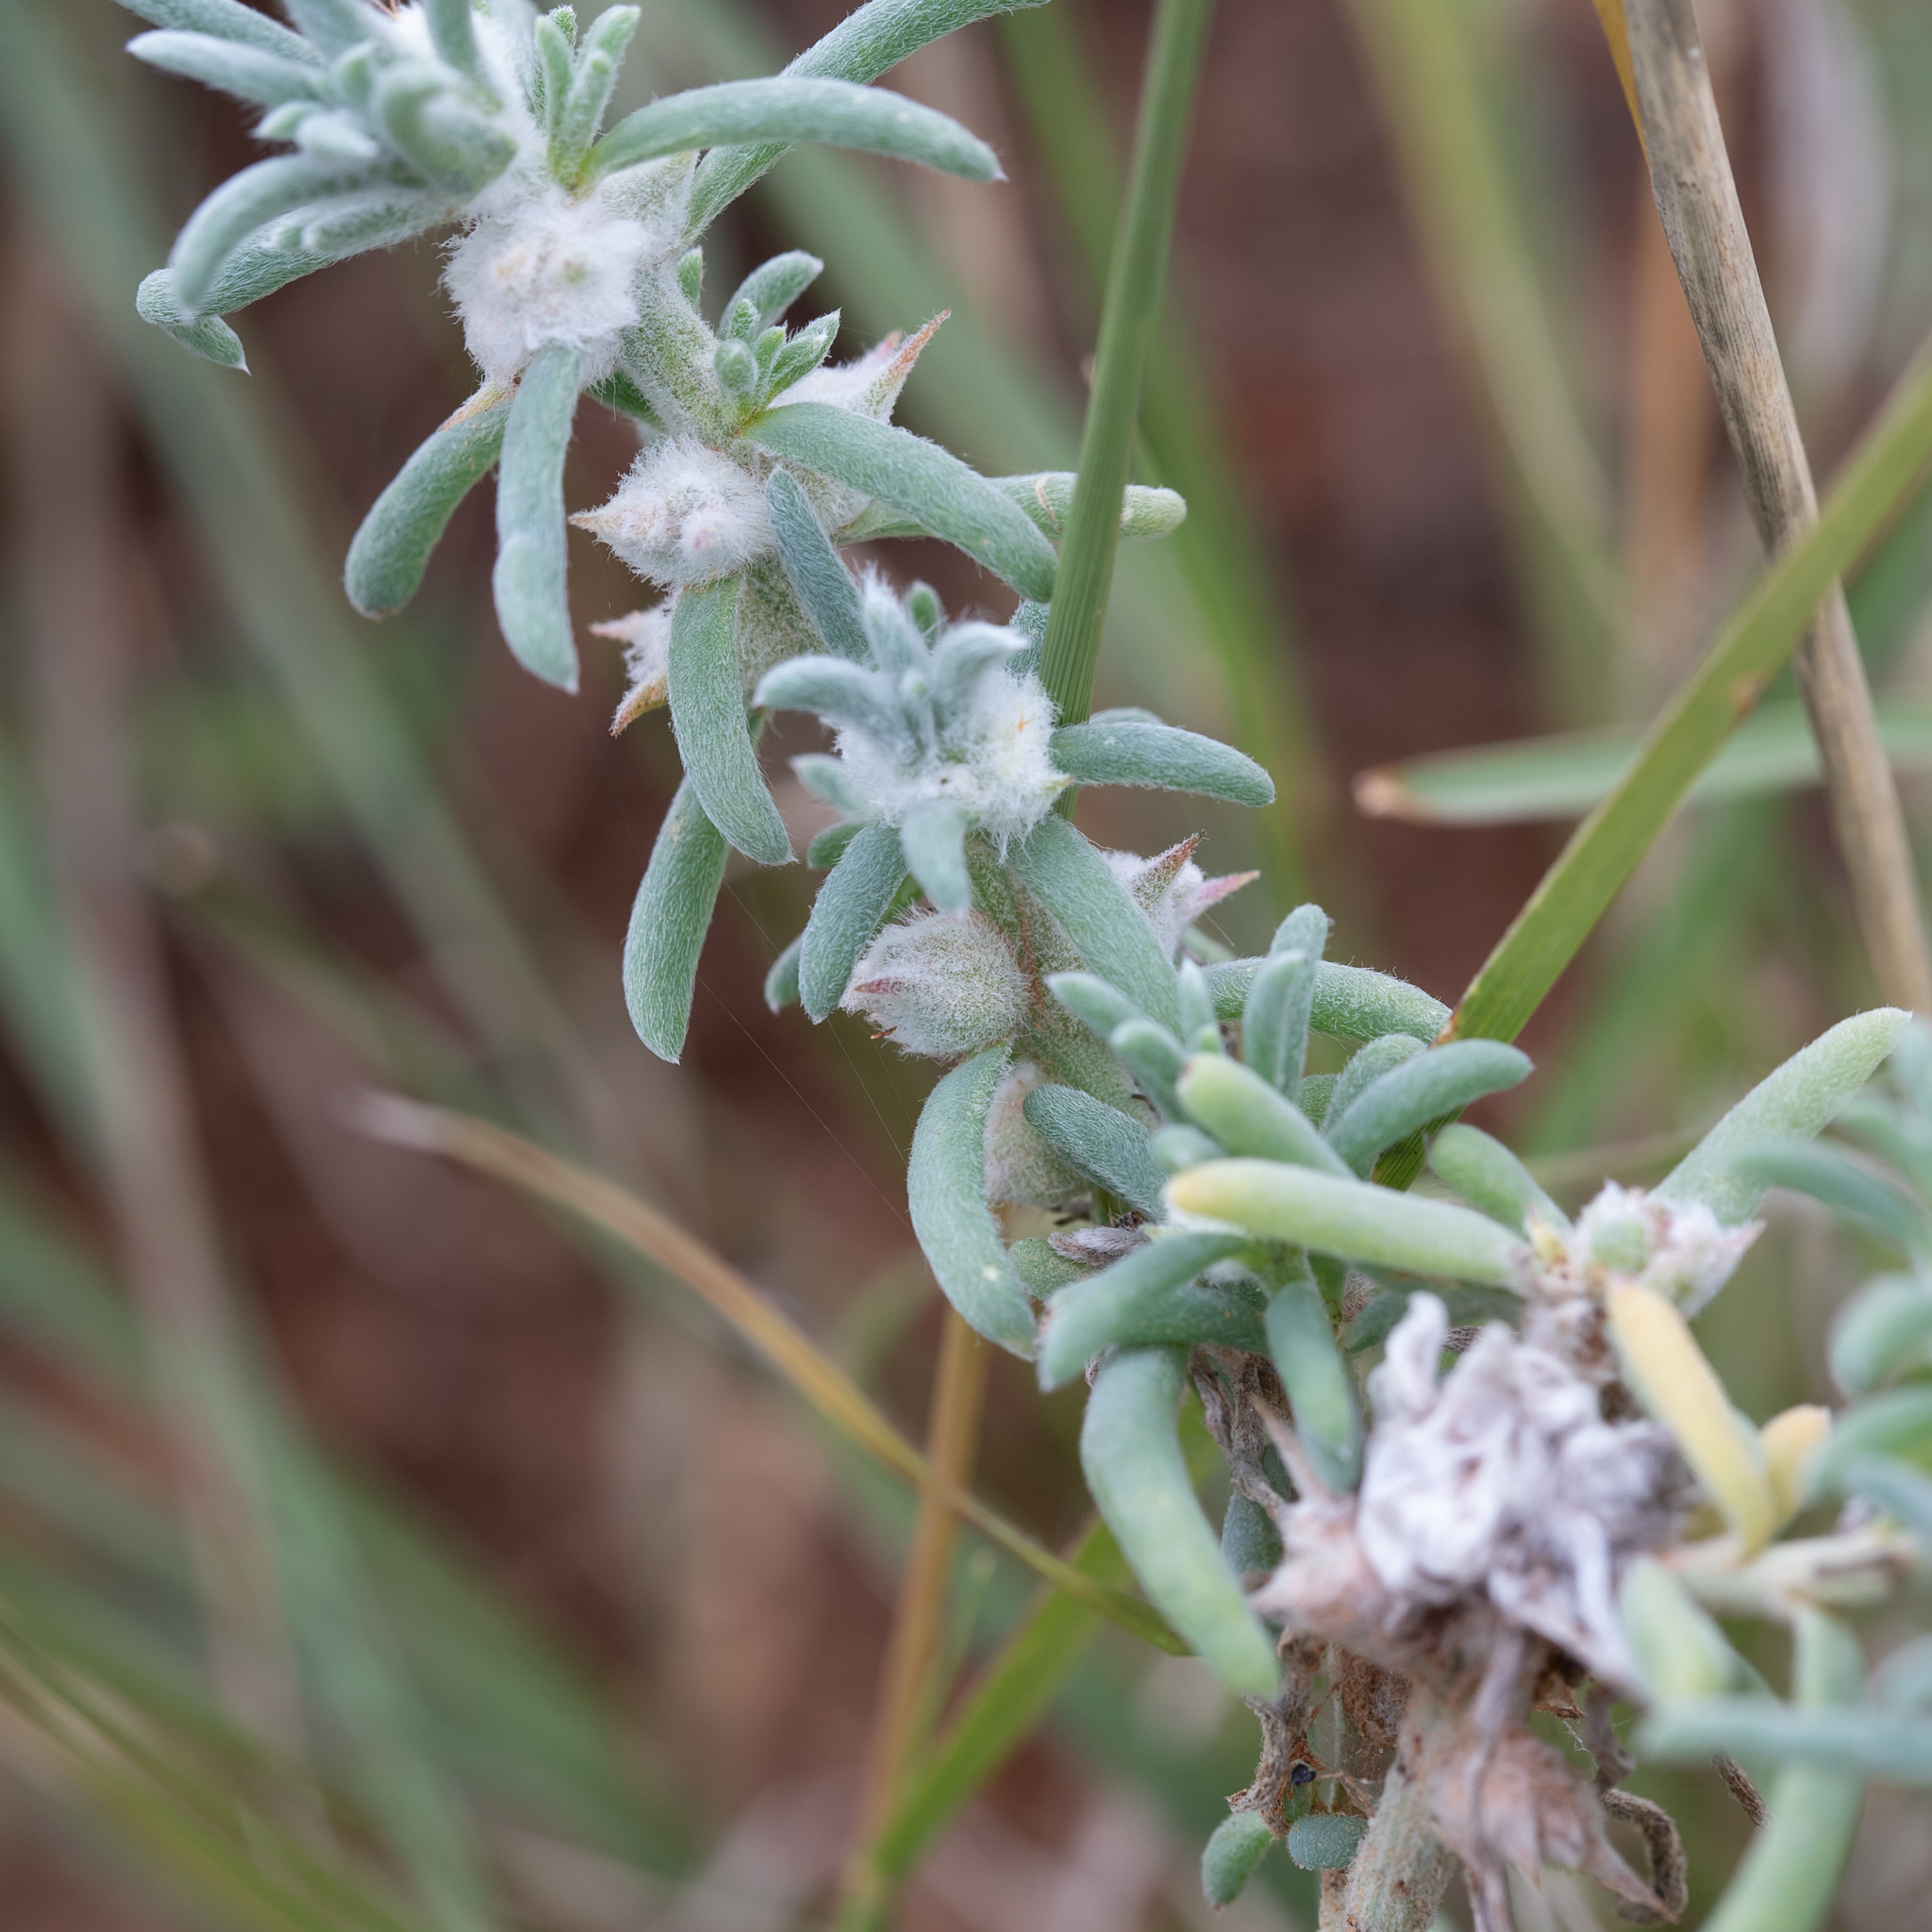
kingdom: Plantae
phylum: Tracheophyta
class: Magnoliopsida
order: Caryophyllales
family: Amaranthaceae
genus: Sclerolaena
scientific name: Sclerolaena bicornis
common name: Goatheadbur
